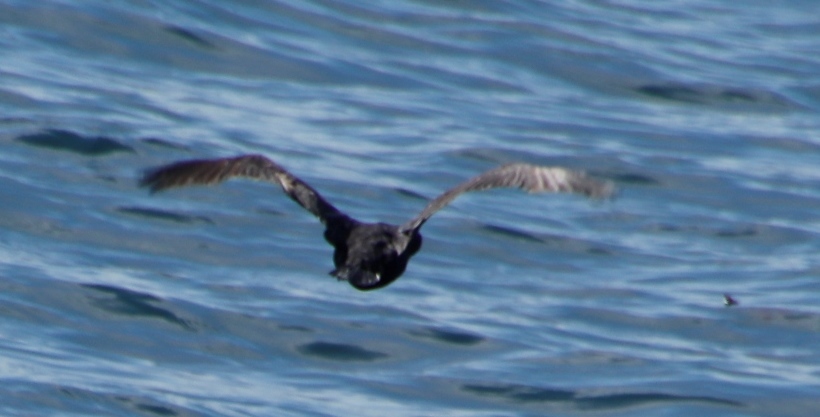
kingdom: Animalia
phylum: Chordata
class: Aves
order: Suliformes
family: Phalacrocoracidae
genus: Phalacrocorax
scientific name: Phalacrocorax capensis
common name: Cape cormorant
